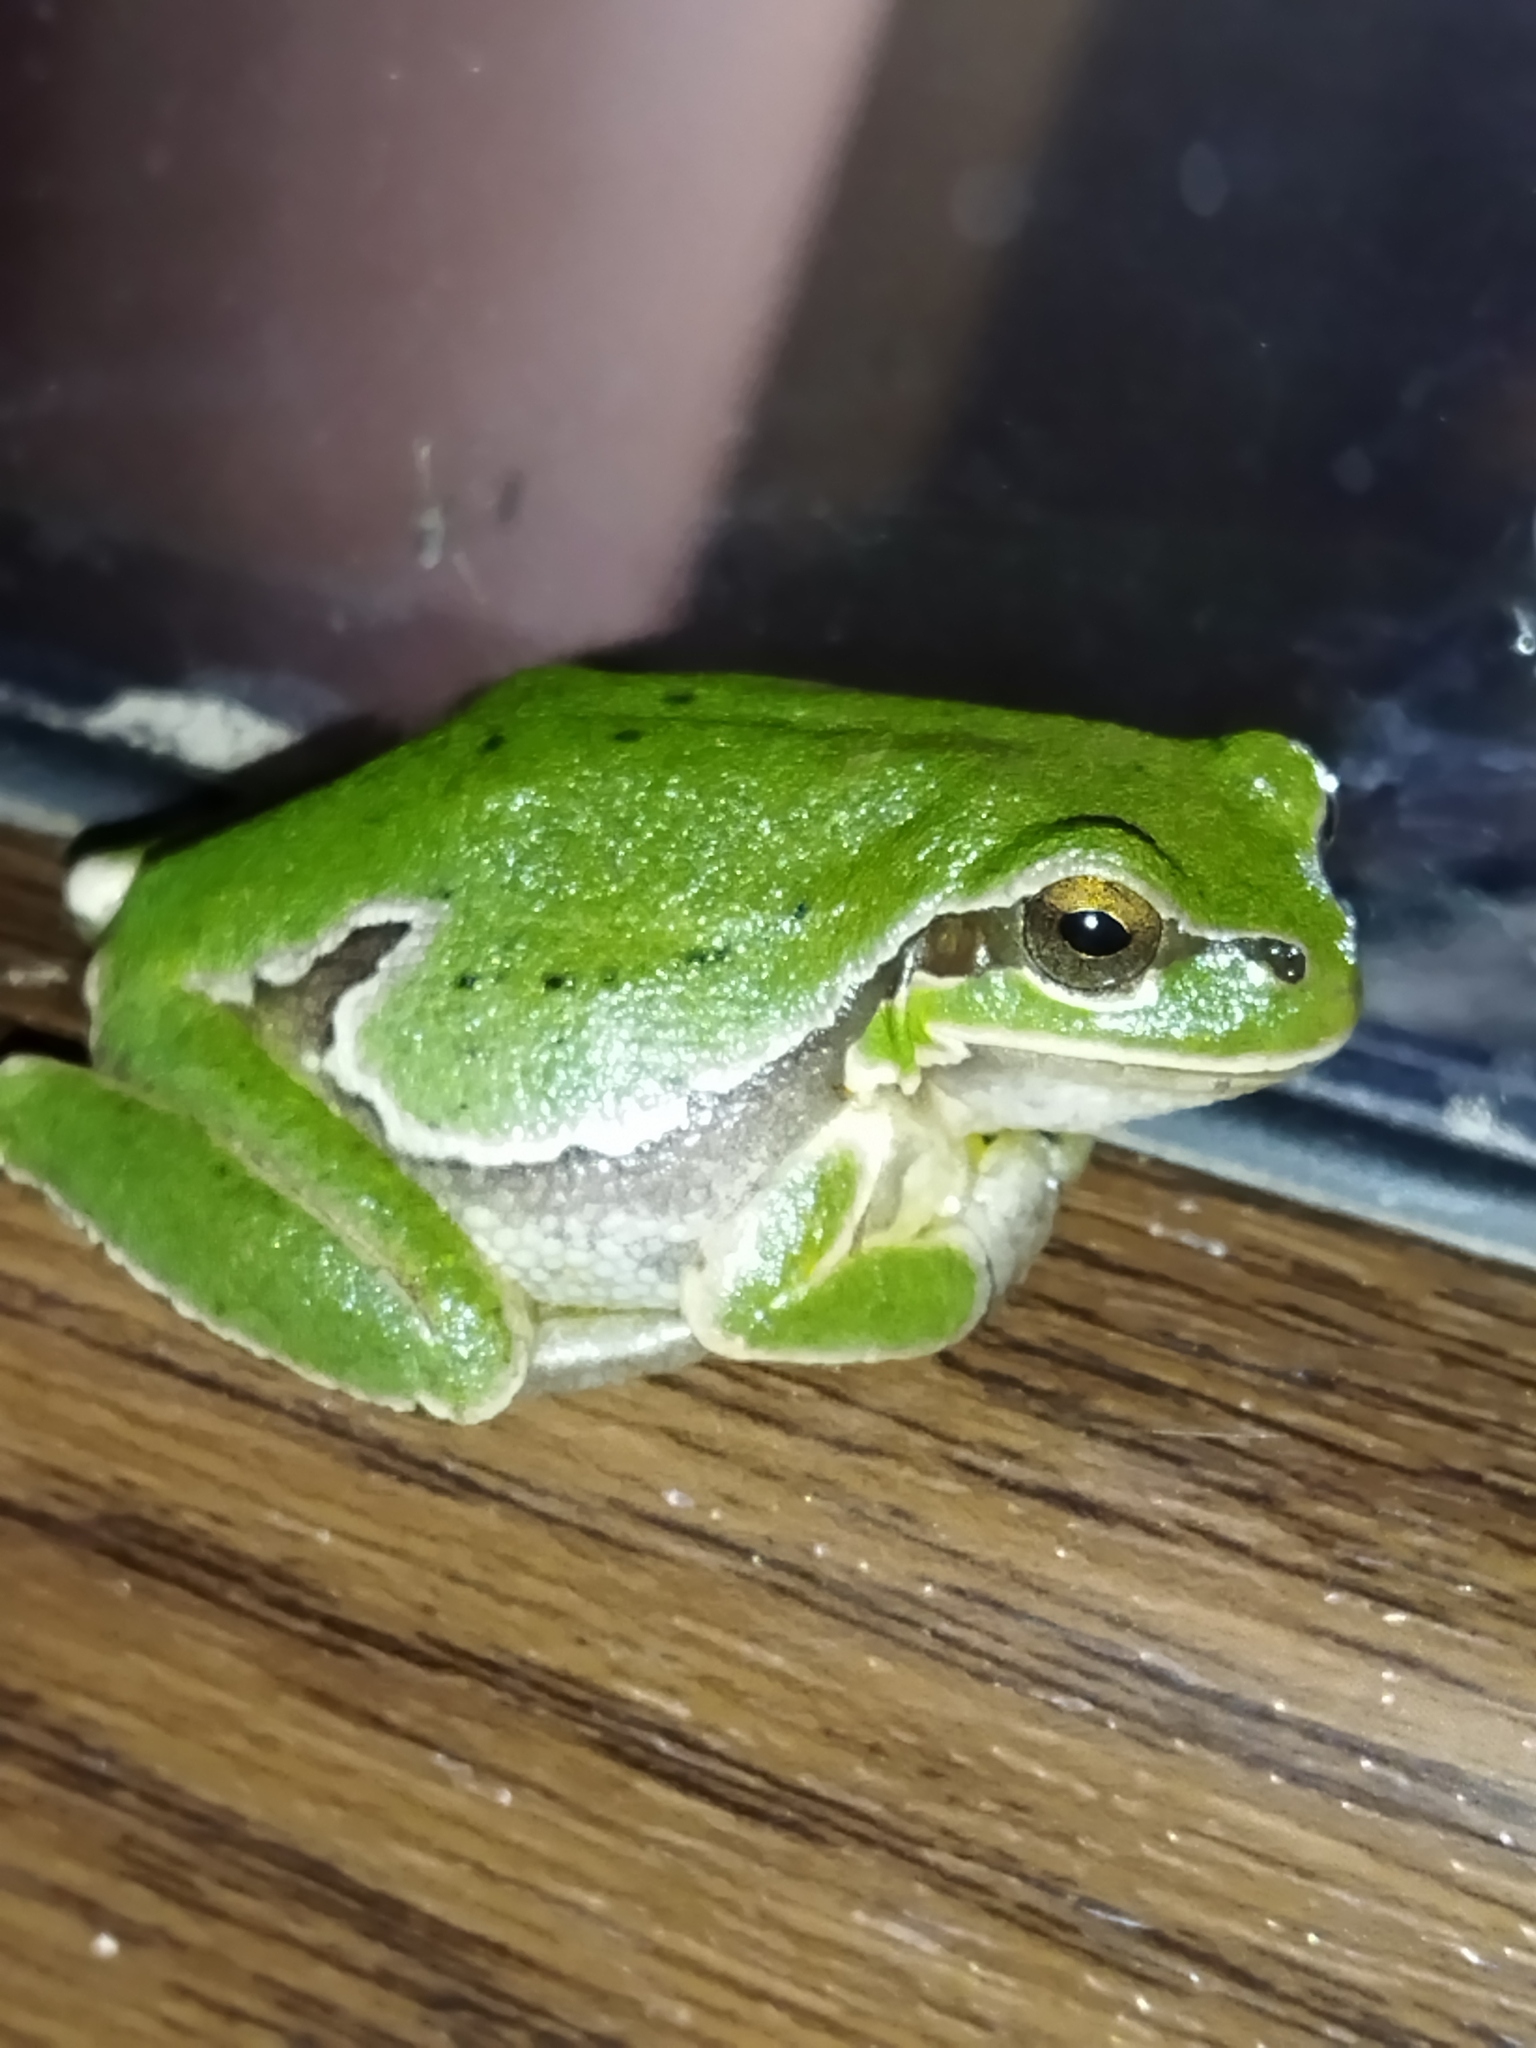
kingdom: Animalia
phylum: Chordata
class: Amphibia
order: Anura
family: Hylidae
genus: Hyla
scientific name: Hyla orientalis
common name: Caucasian treefrog
